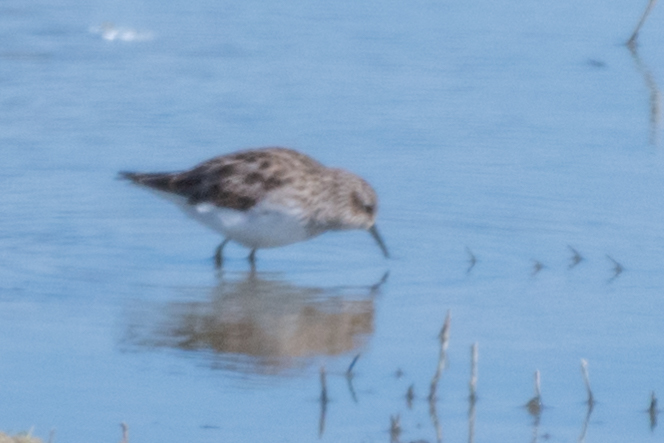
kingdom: Animalia
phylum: Chordata
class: Aves
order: Charadriiformes
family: Scolopacidae
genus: Calidris
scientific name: Calidris minutilla
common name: Least sandpiper
